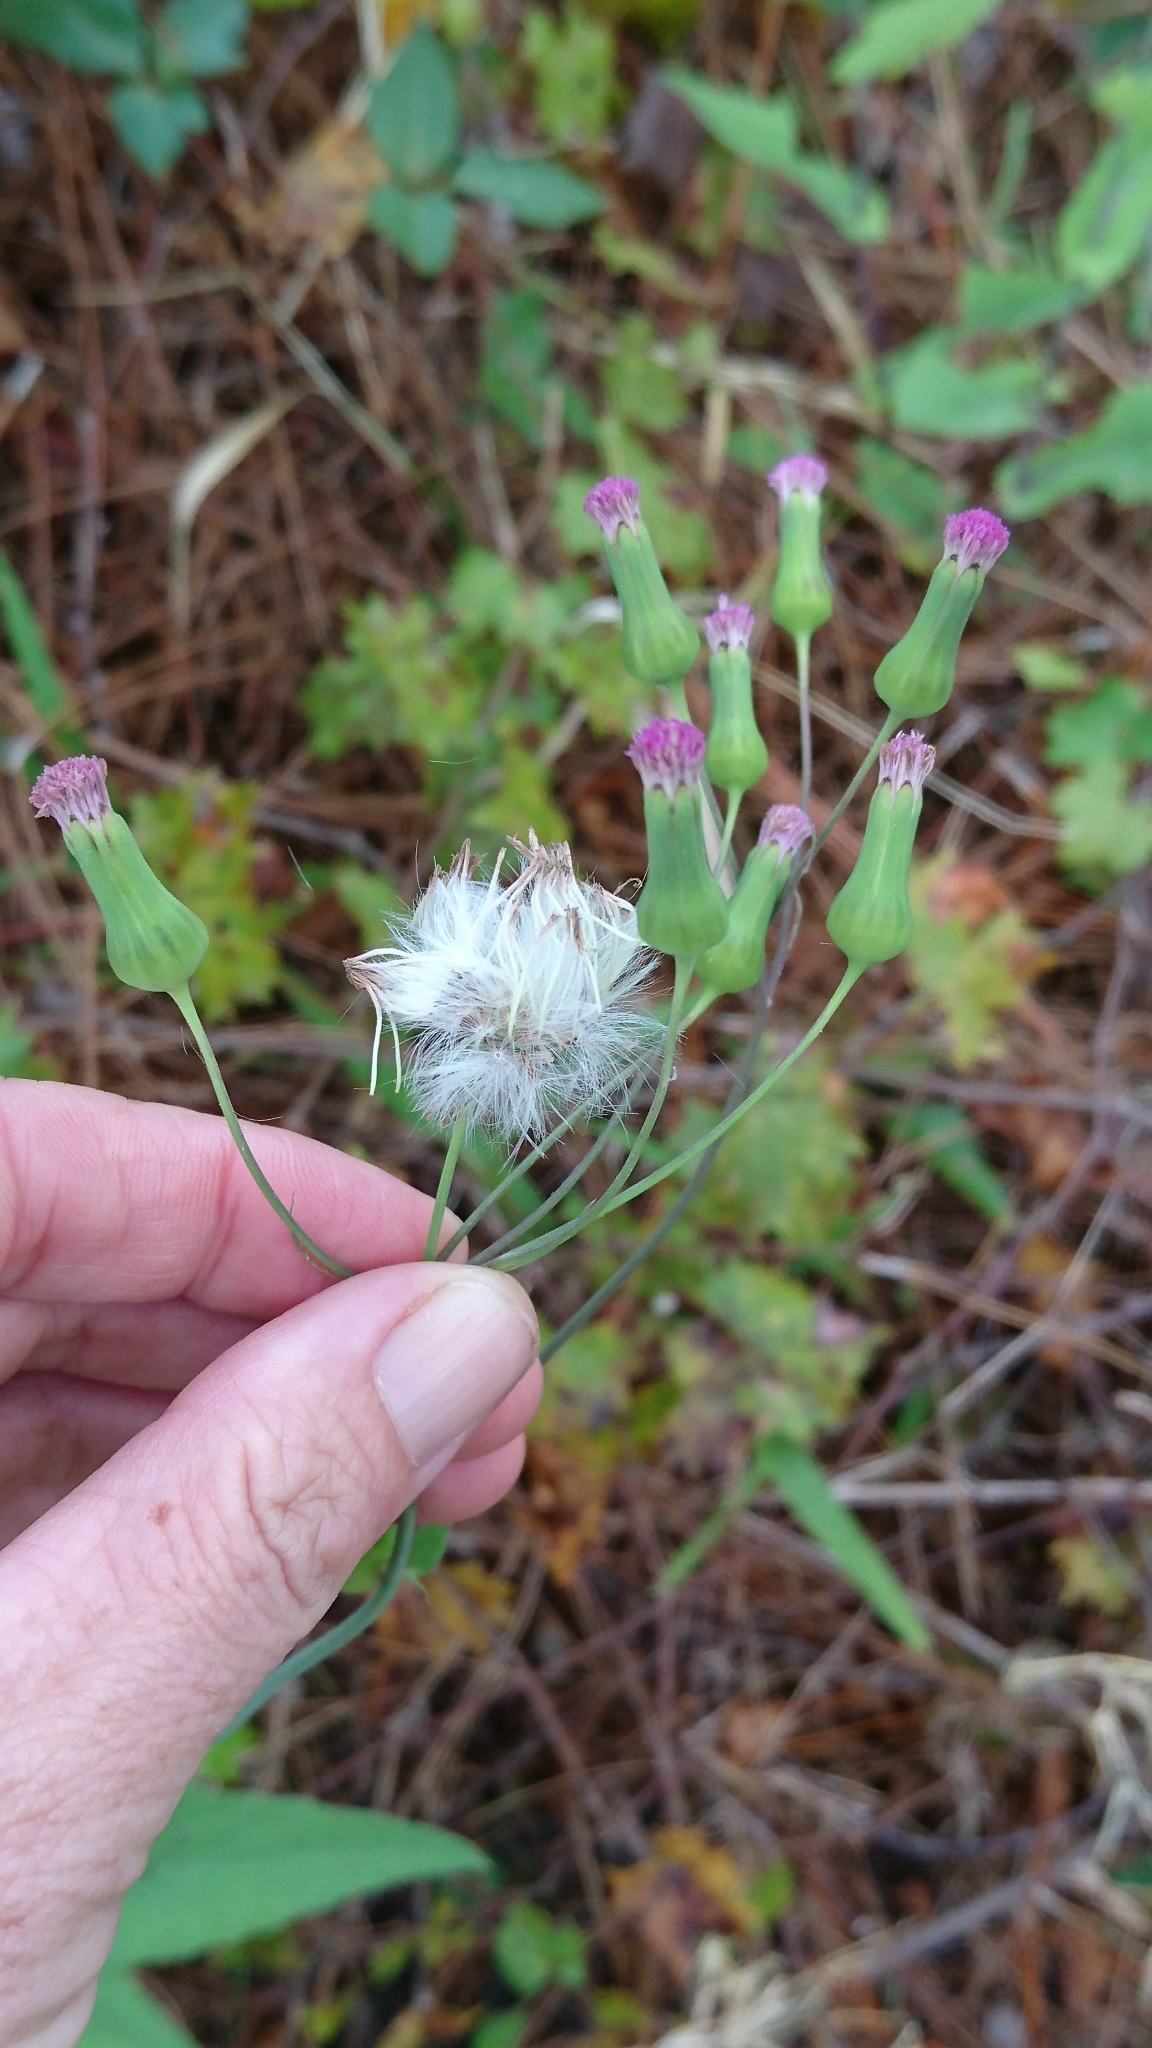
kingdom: Plantae
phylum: Tracheophyta
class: Magnoliopsida
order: Asterales
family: Asteraceae
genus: Emilia
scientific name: Emilia sonchifolia
